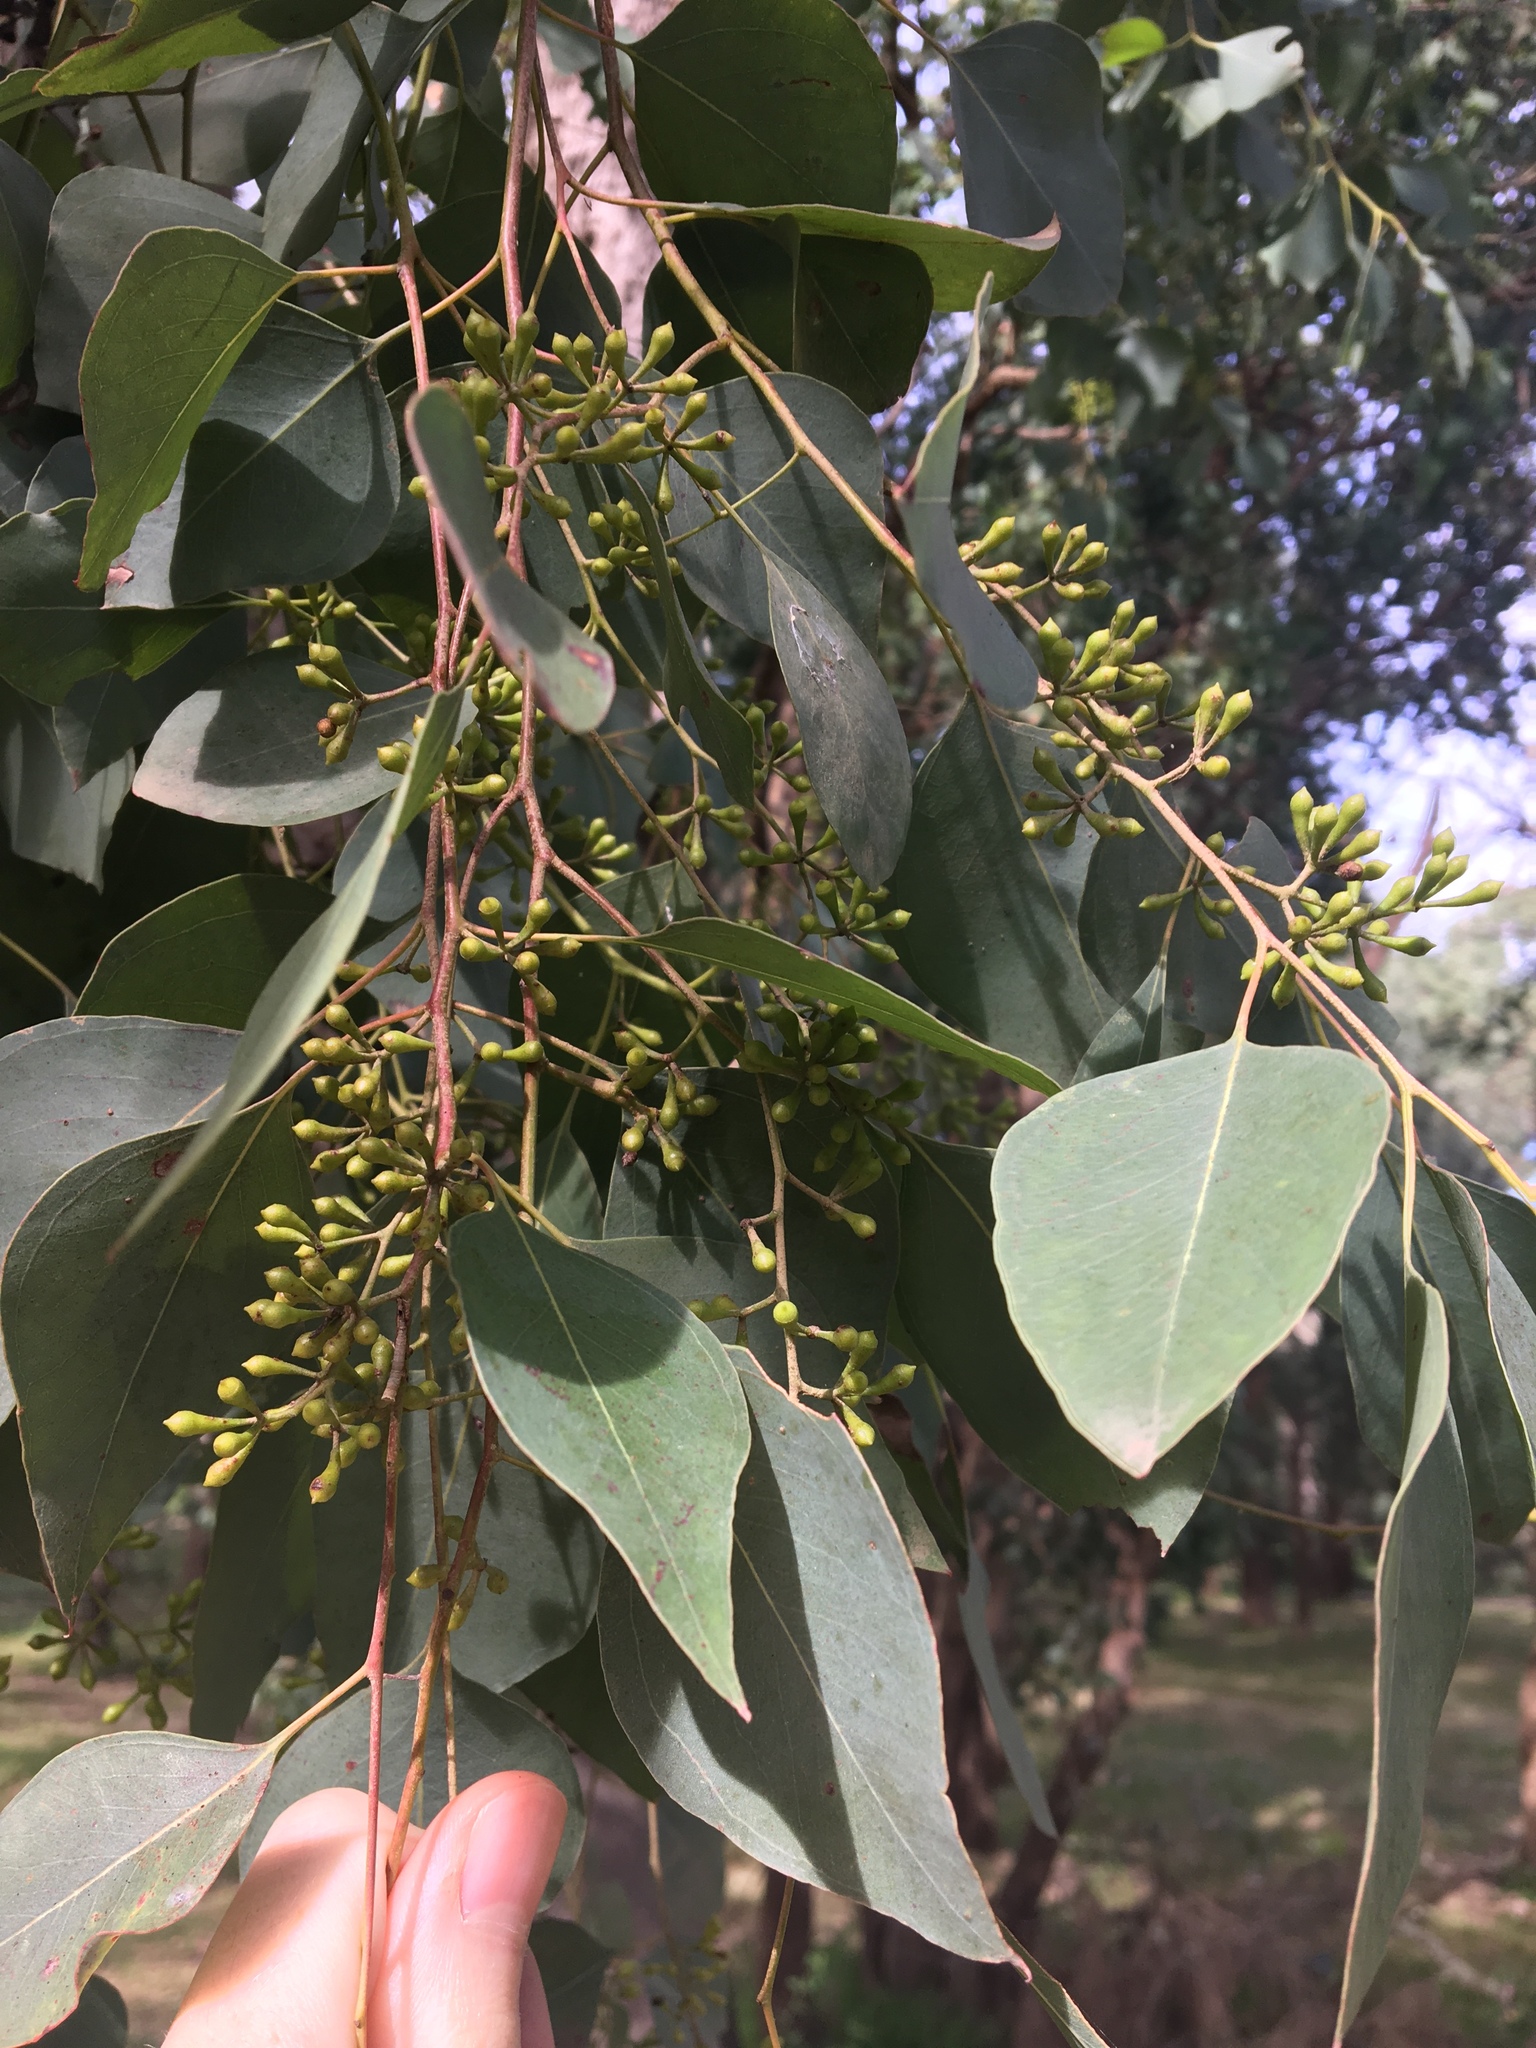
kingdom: Plantae
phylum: Tracheophyta
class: Magnoliopsida
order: Myrtales
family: Myrtaceae
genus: Eucalyptus
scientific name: Eucalyptus moluccana
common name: Grey-box
